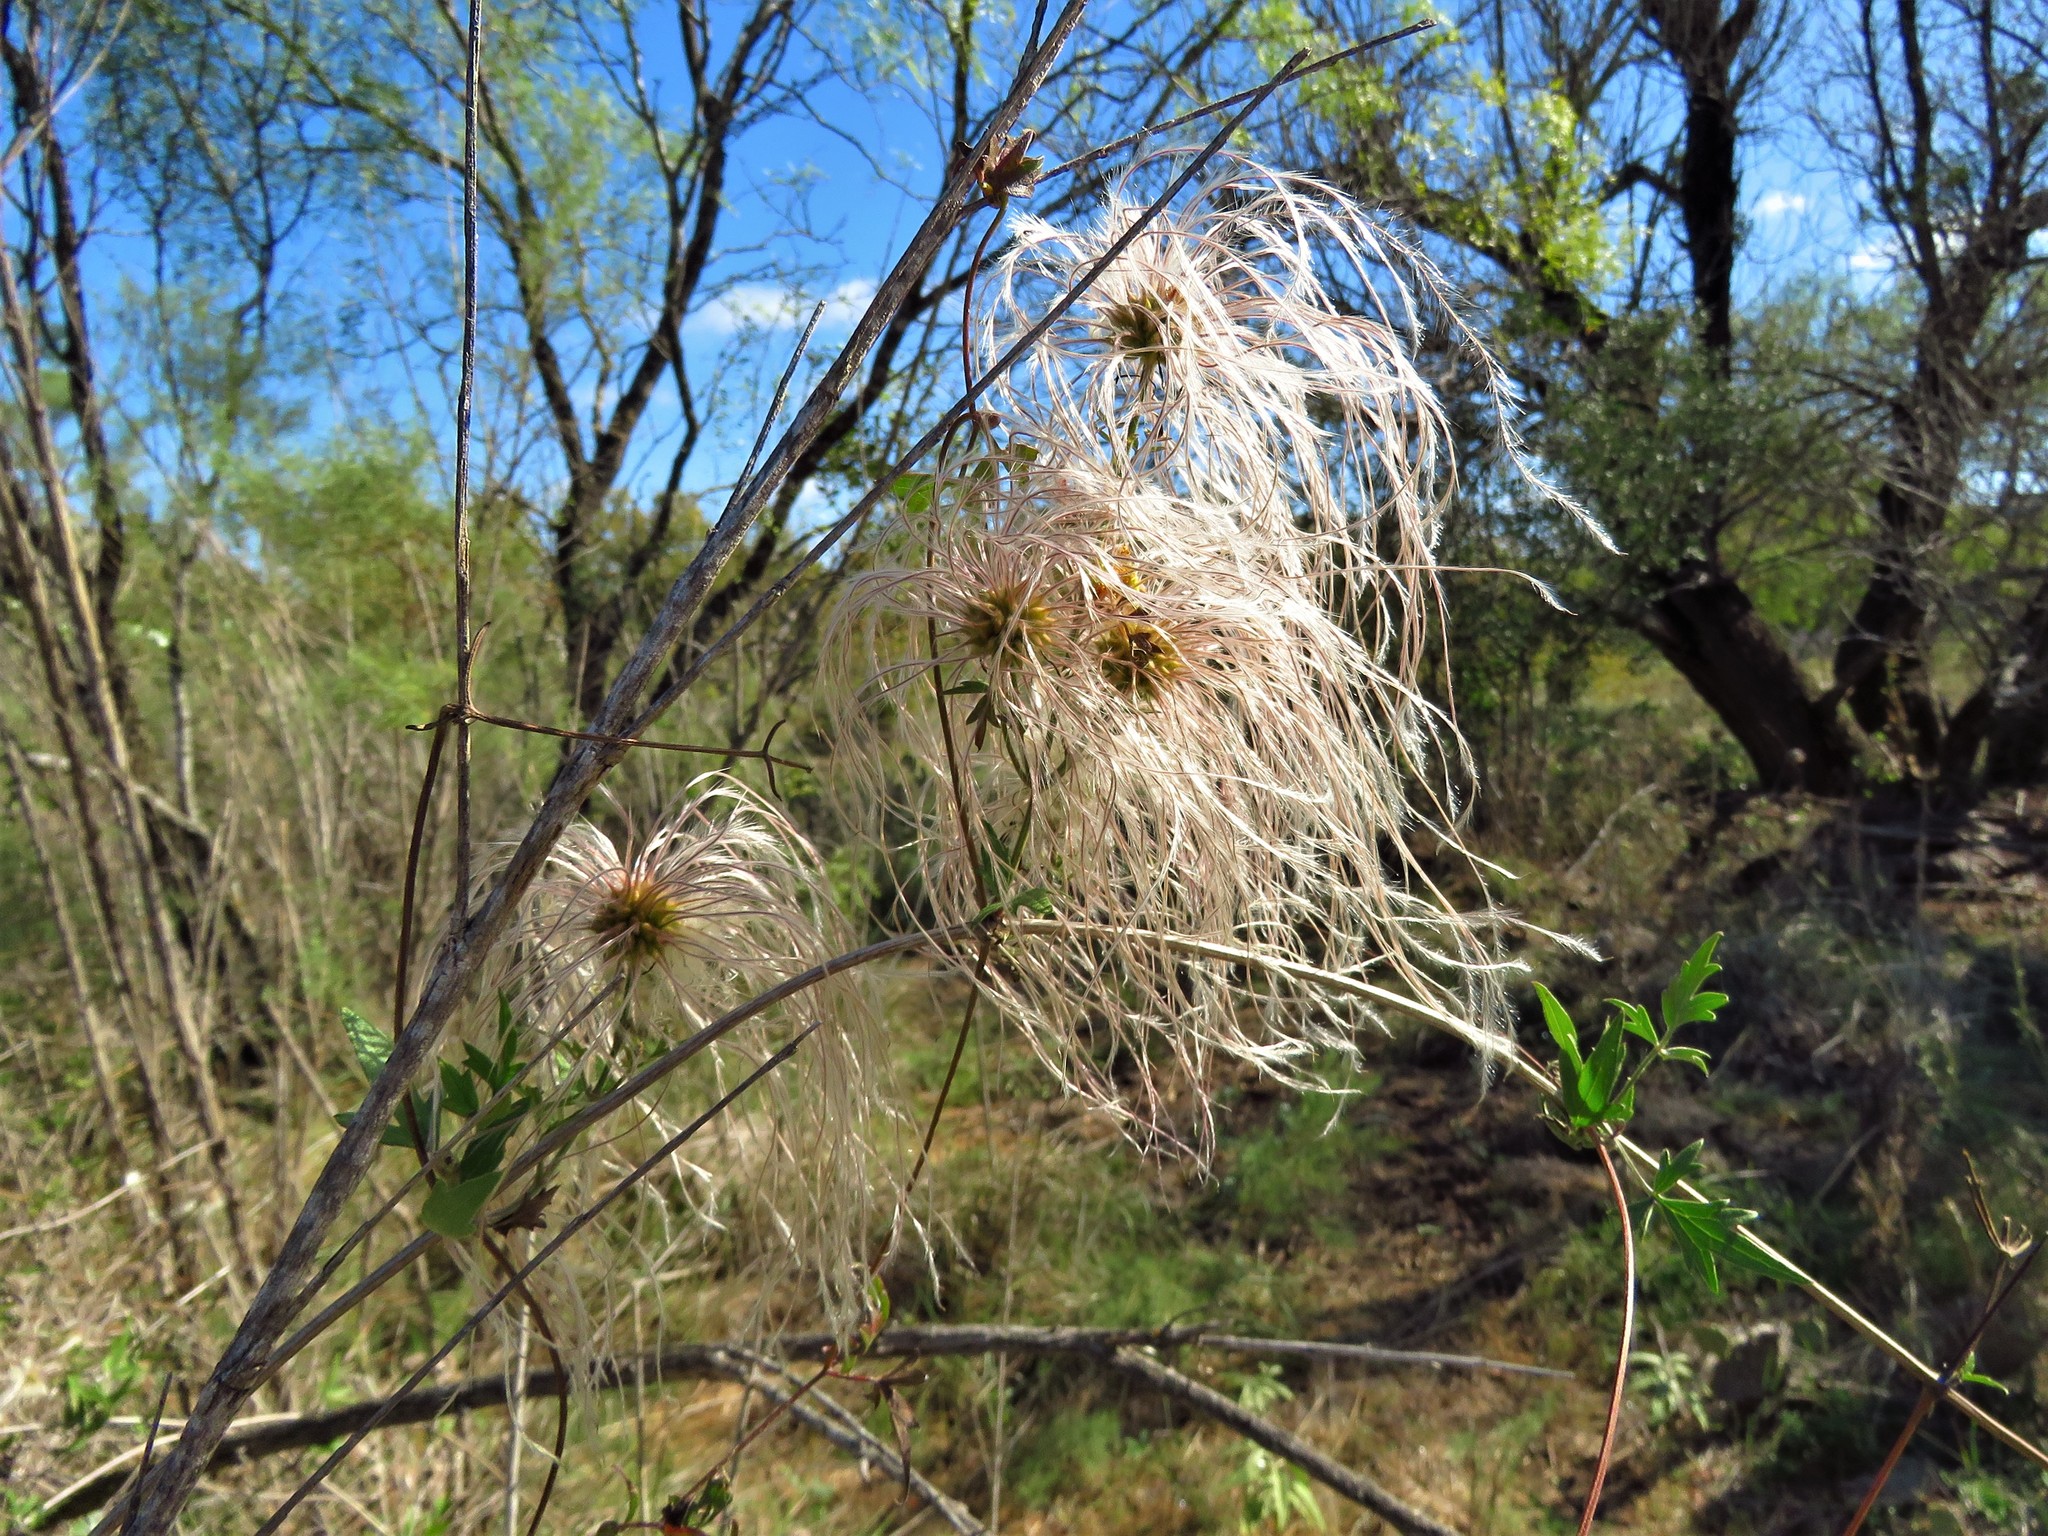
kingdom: Plantae
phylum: Tracheophyta
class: Magnoliopsida
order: Ranunculales
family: Ranunculaceae
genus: Clematis
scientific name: Clematis drummondii
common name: Texas virgin's bower
